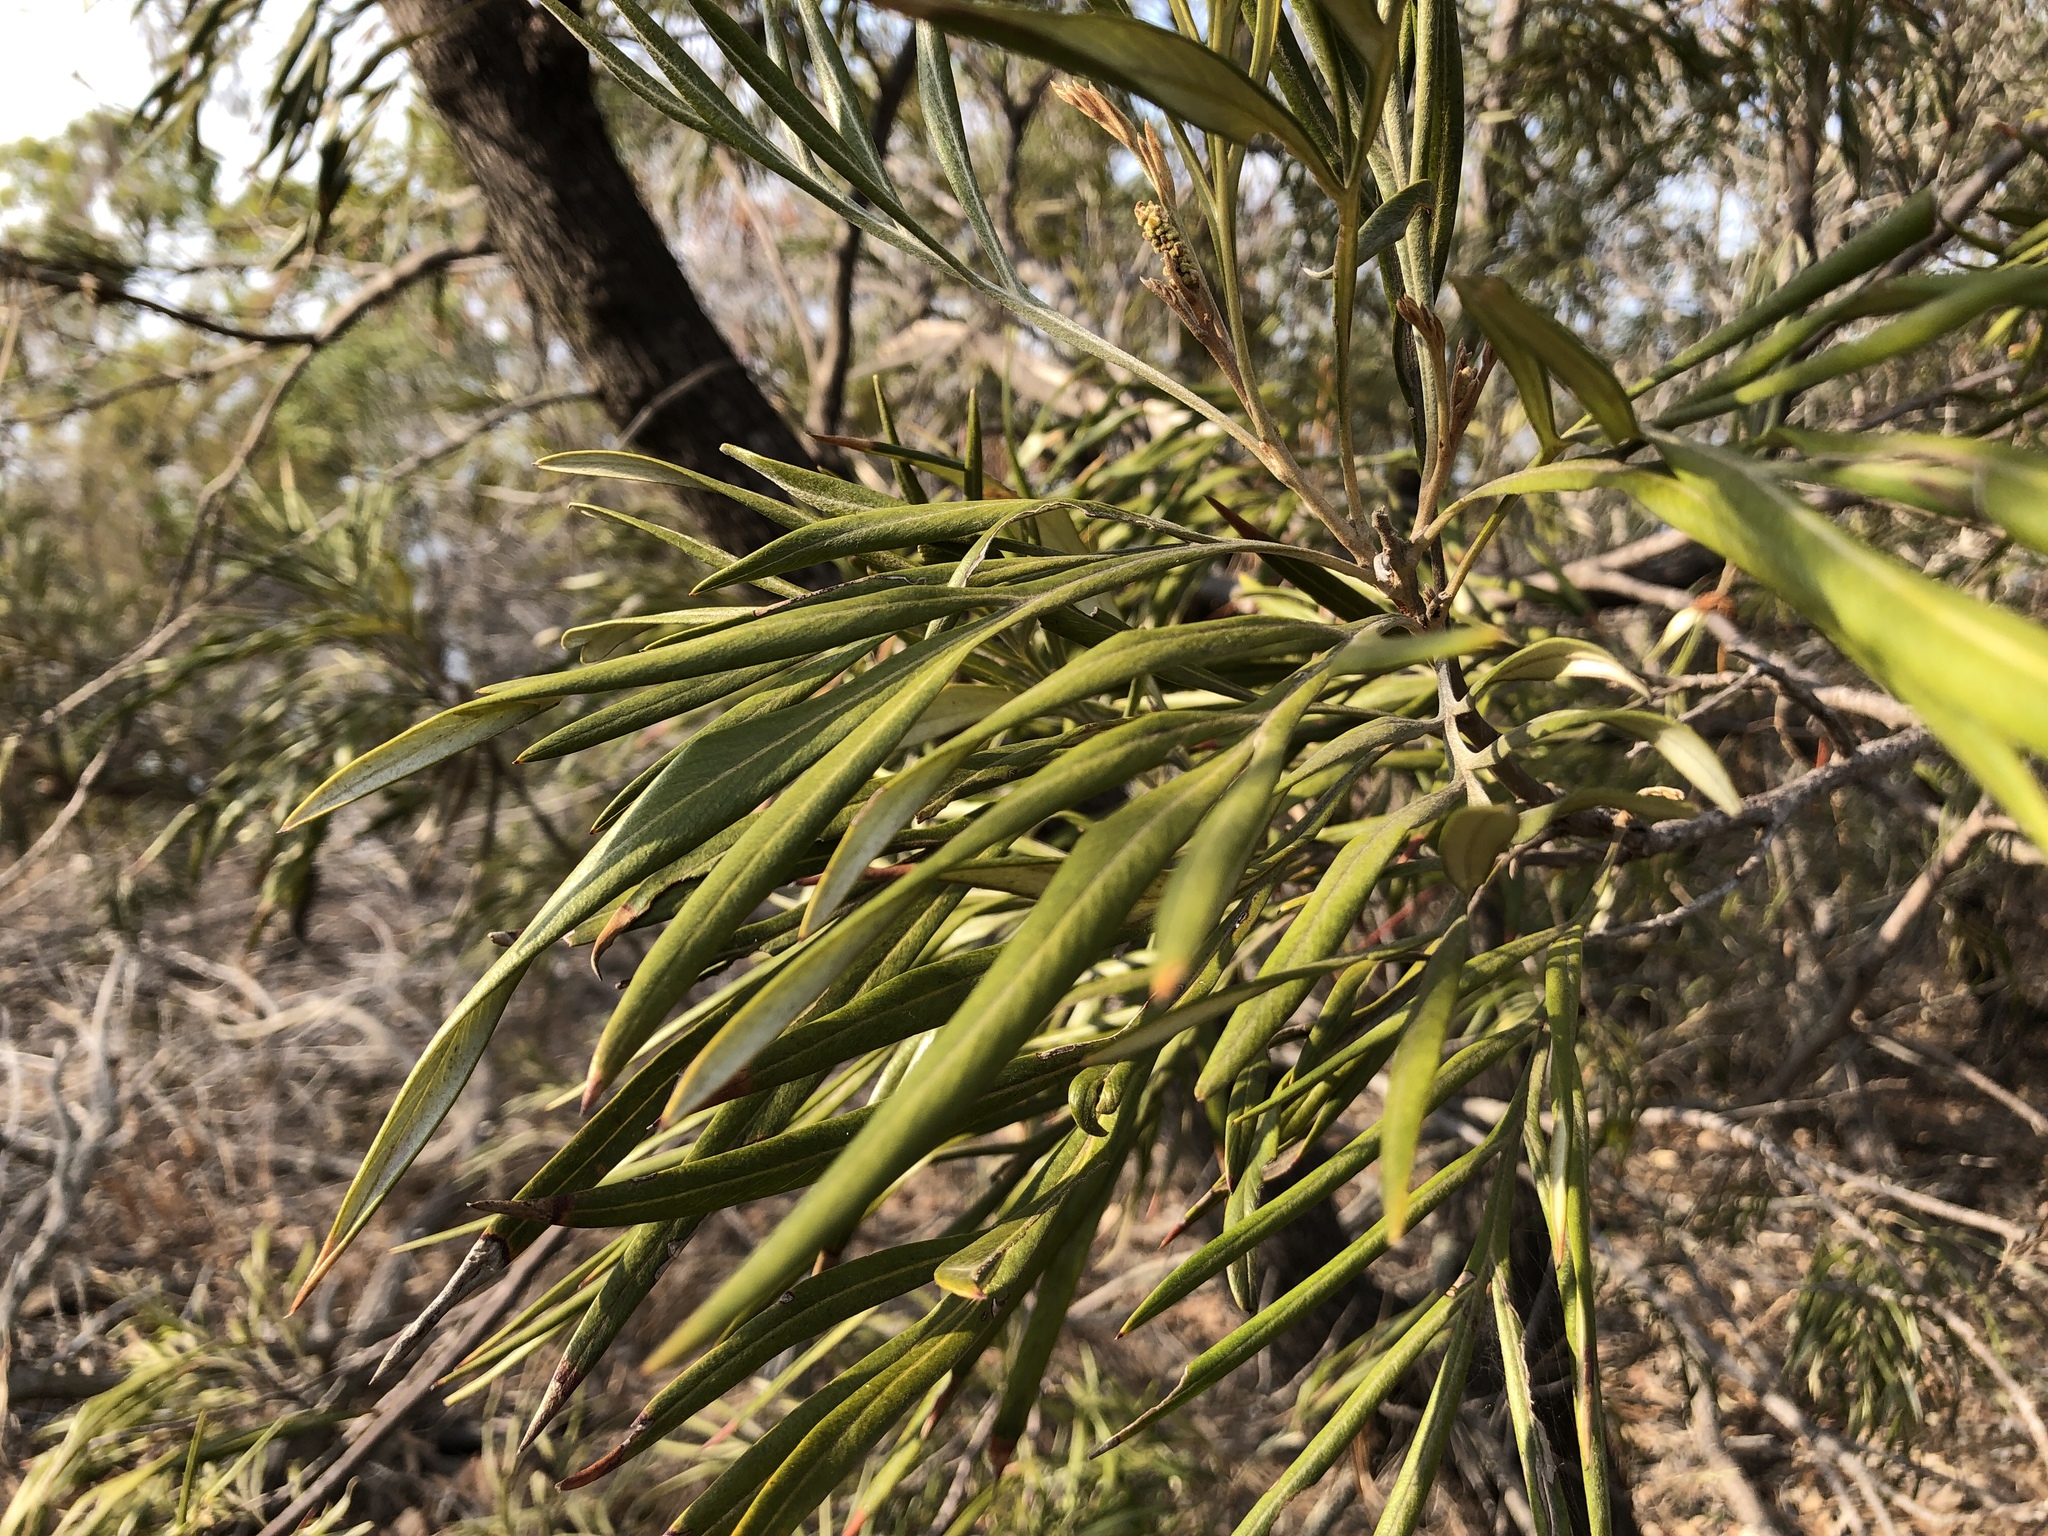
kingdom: Plantae
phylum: Tracheophyta
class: Magnoliopsida
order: Proteales
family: Proteaceae
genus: Grevillea
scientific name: Grevillea banksii
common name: Kahili flower
